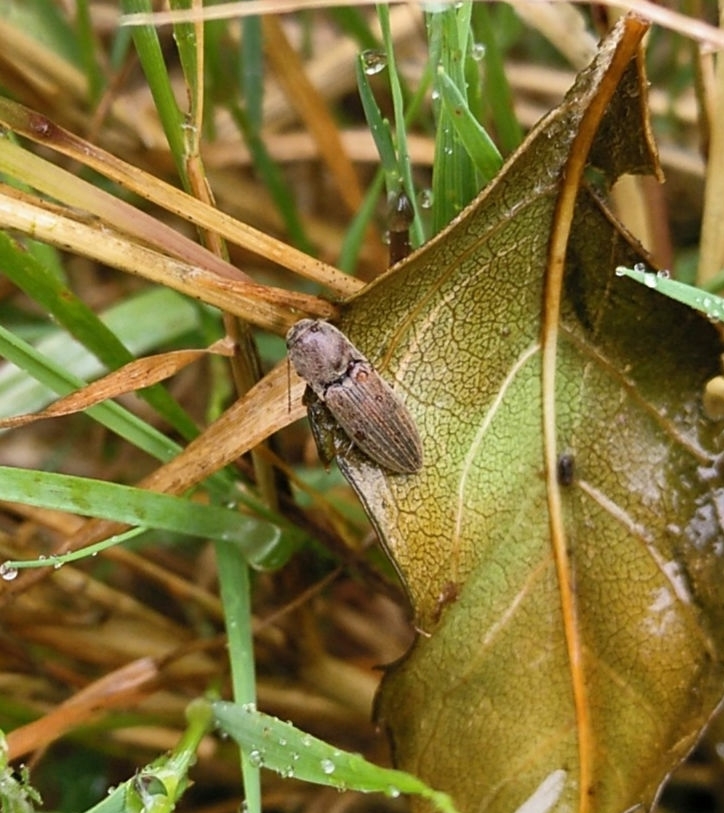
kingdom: Animalia
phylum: Arthropoda
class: Insecta
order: Coleoptera
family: Elateridae
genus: Agriotes
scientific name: Agriotes lineatus
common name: Lined click beetle
